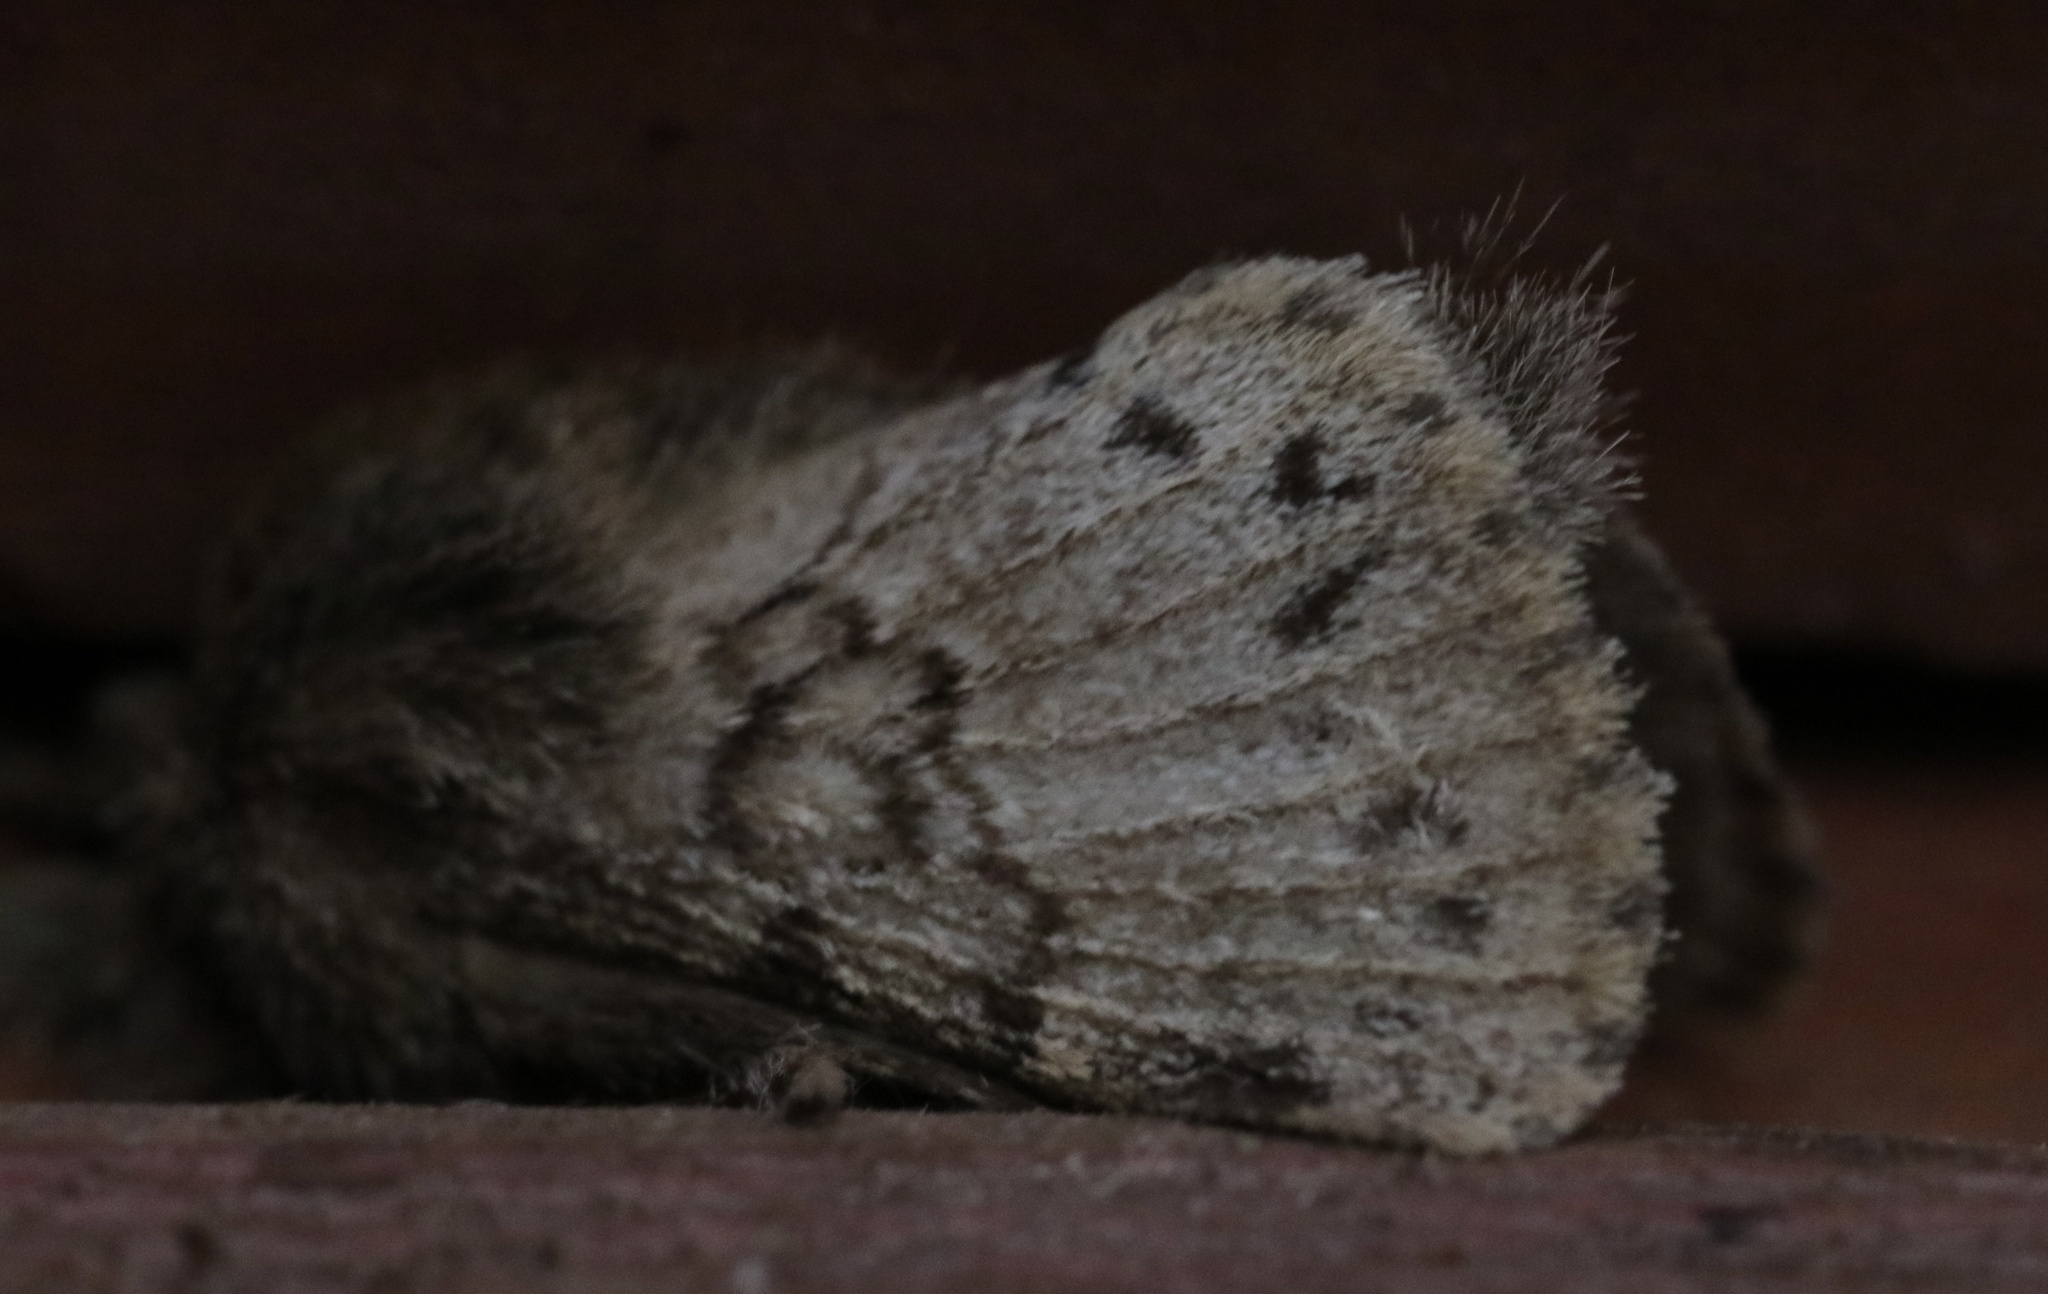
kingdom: Animalia
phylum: Arthropoda
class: Insecta
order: Lepidoptera
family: Lasiocampidae
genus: Macromphalia
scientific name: Macromphalia ancilla
